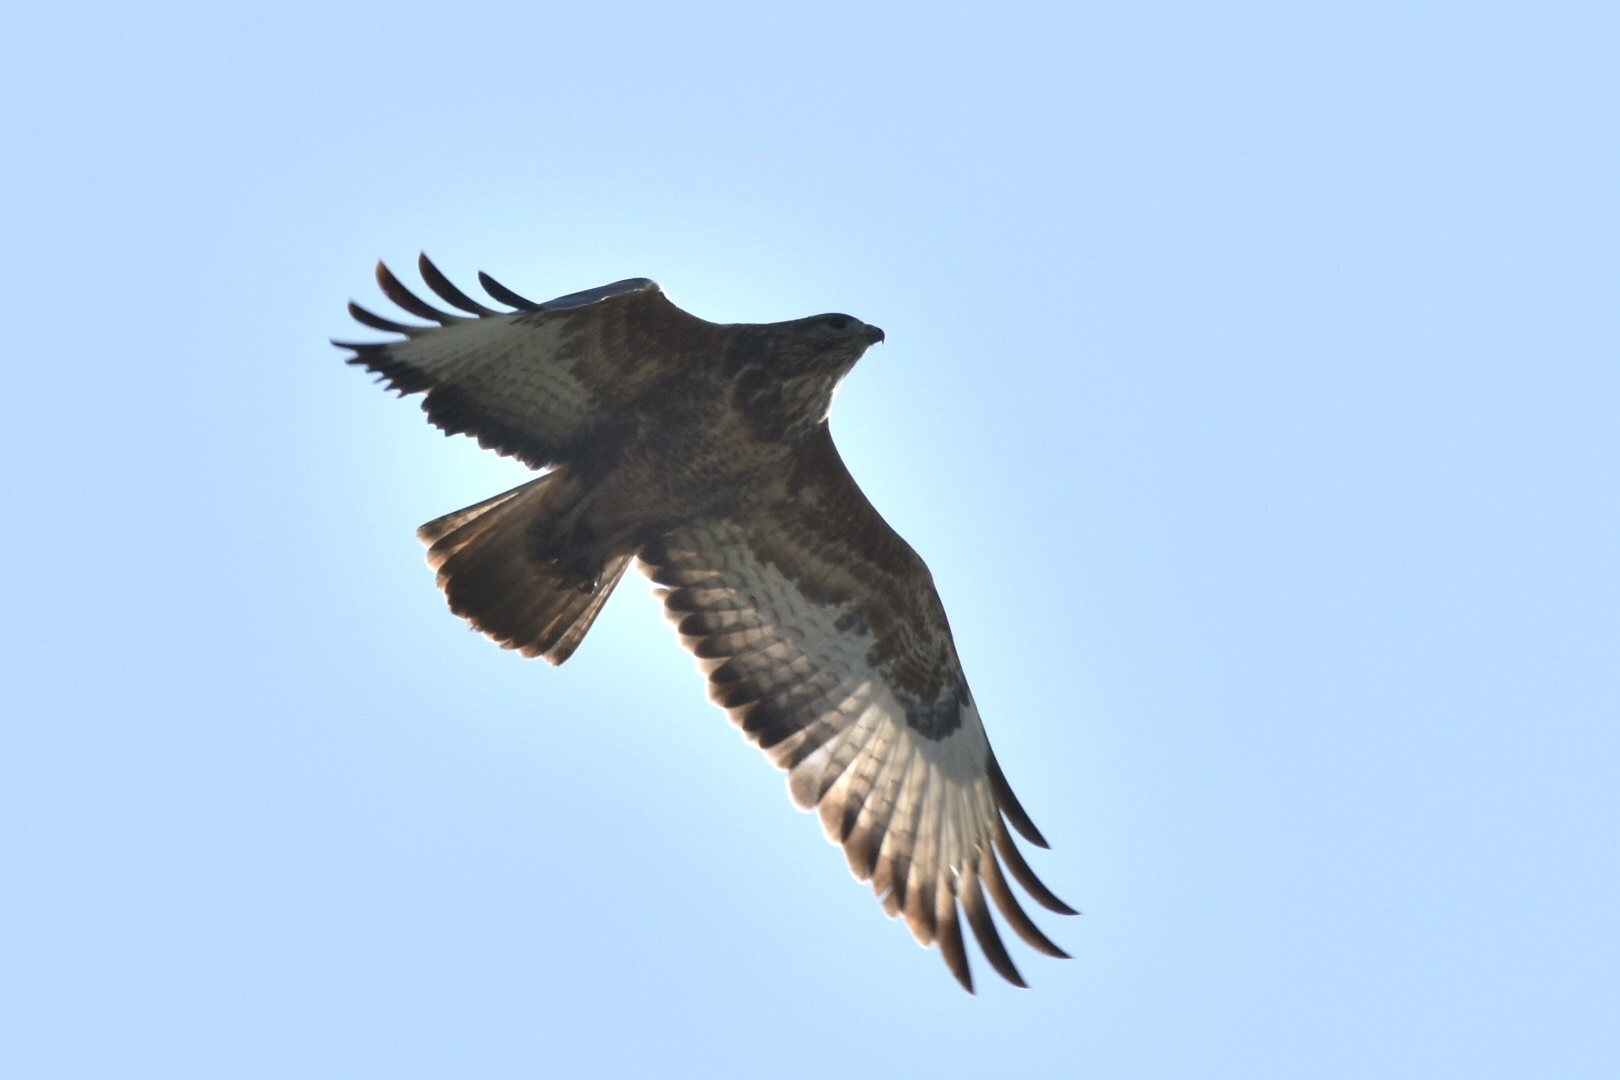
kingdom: Animalia
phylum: Chordata
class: Aves
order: Accipitriformes
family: Accipitridae
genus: Buteo
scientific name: Buteo buteo
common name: Common buzzard
